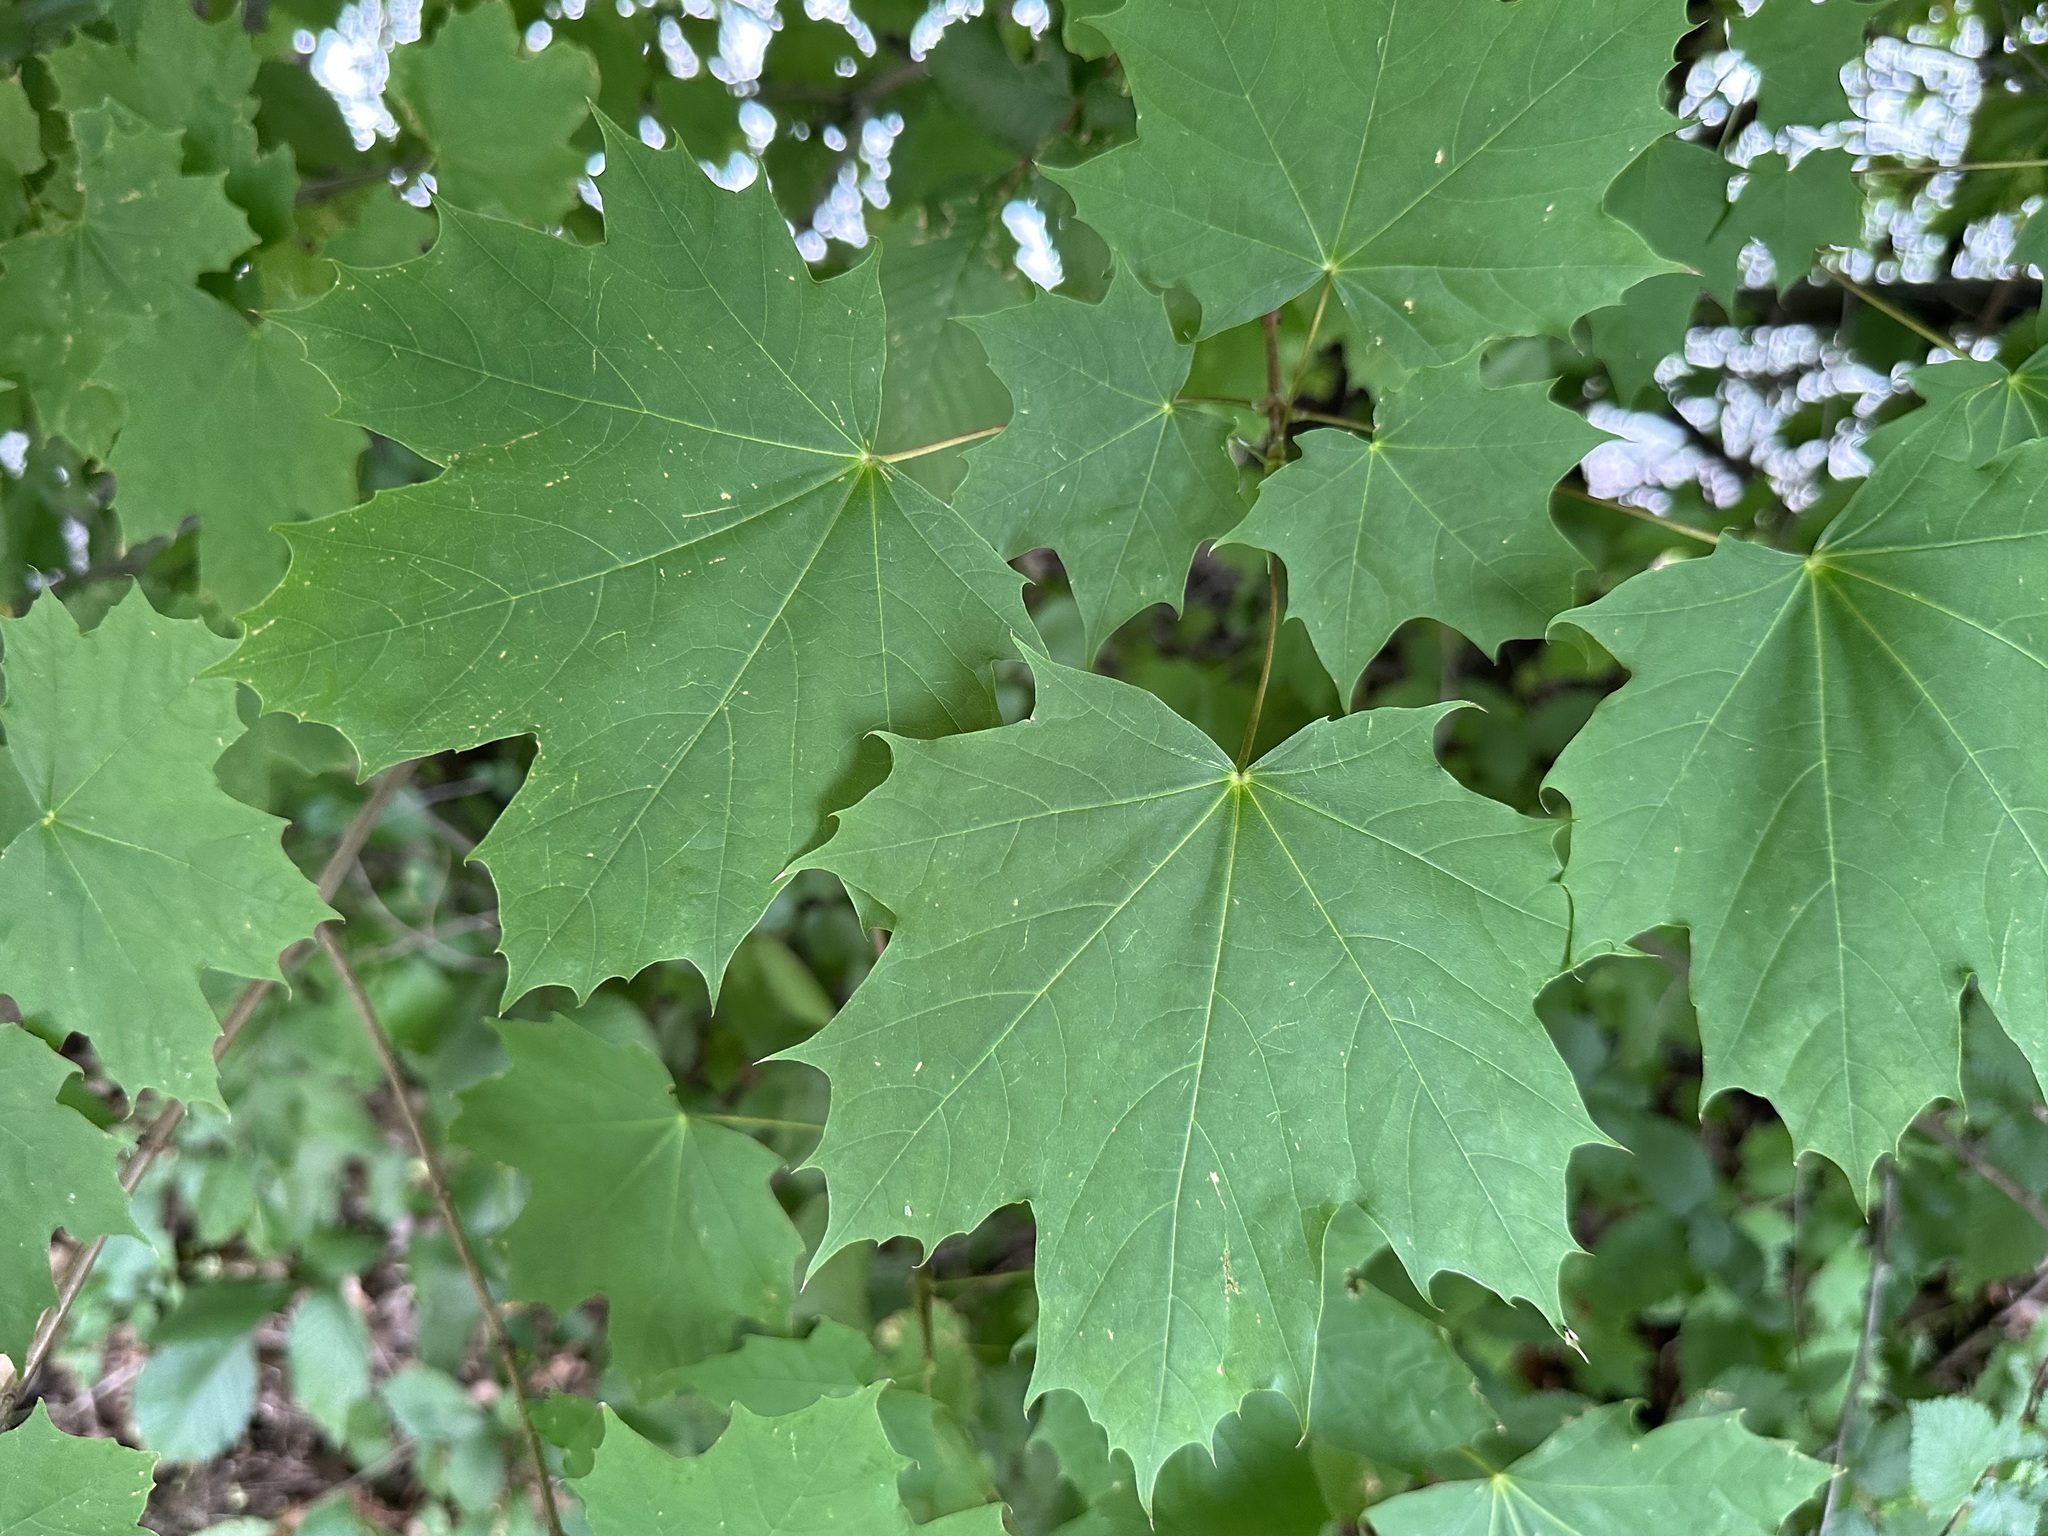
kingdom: Plantae
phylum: Tracheophyta
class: Magnoliopsida
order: Sapindales
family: Sapindaceae
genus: Acer
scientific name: Acer platanoides
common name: Norway maple
